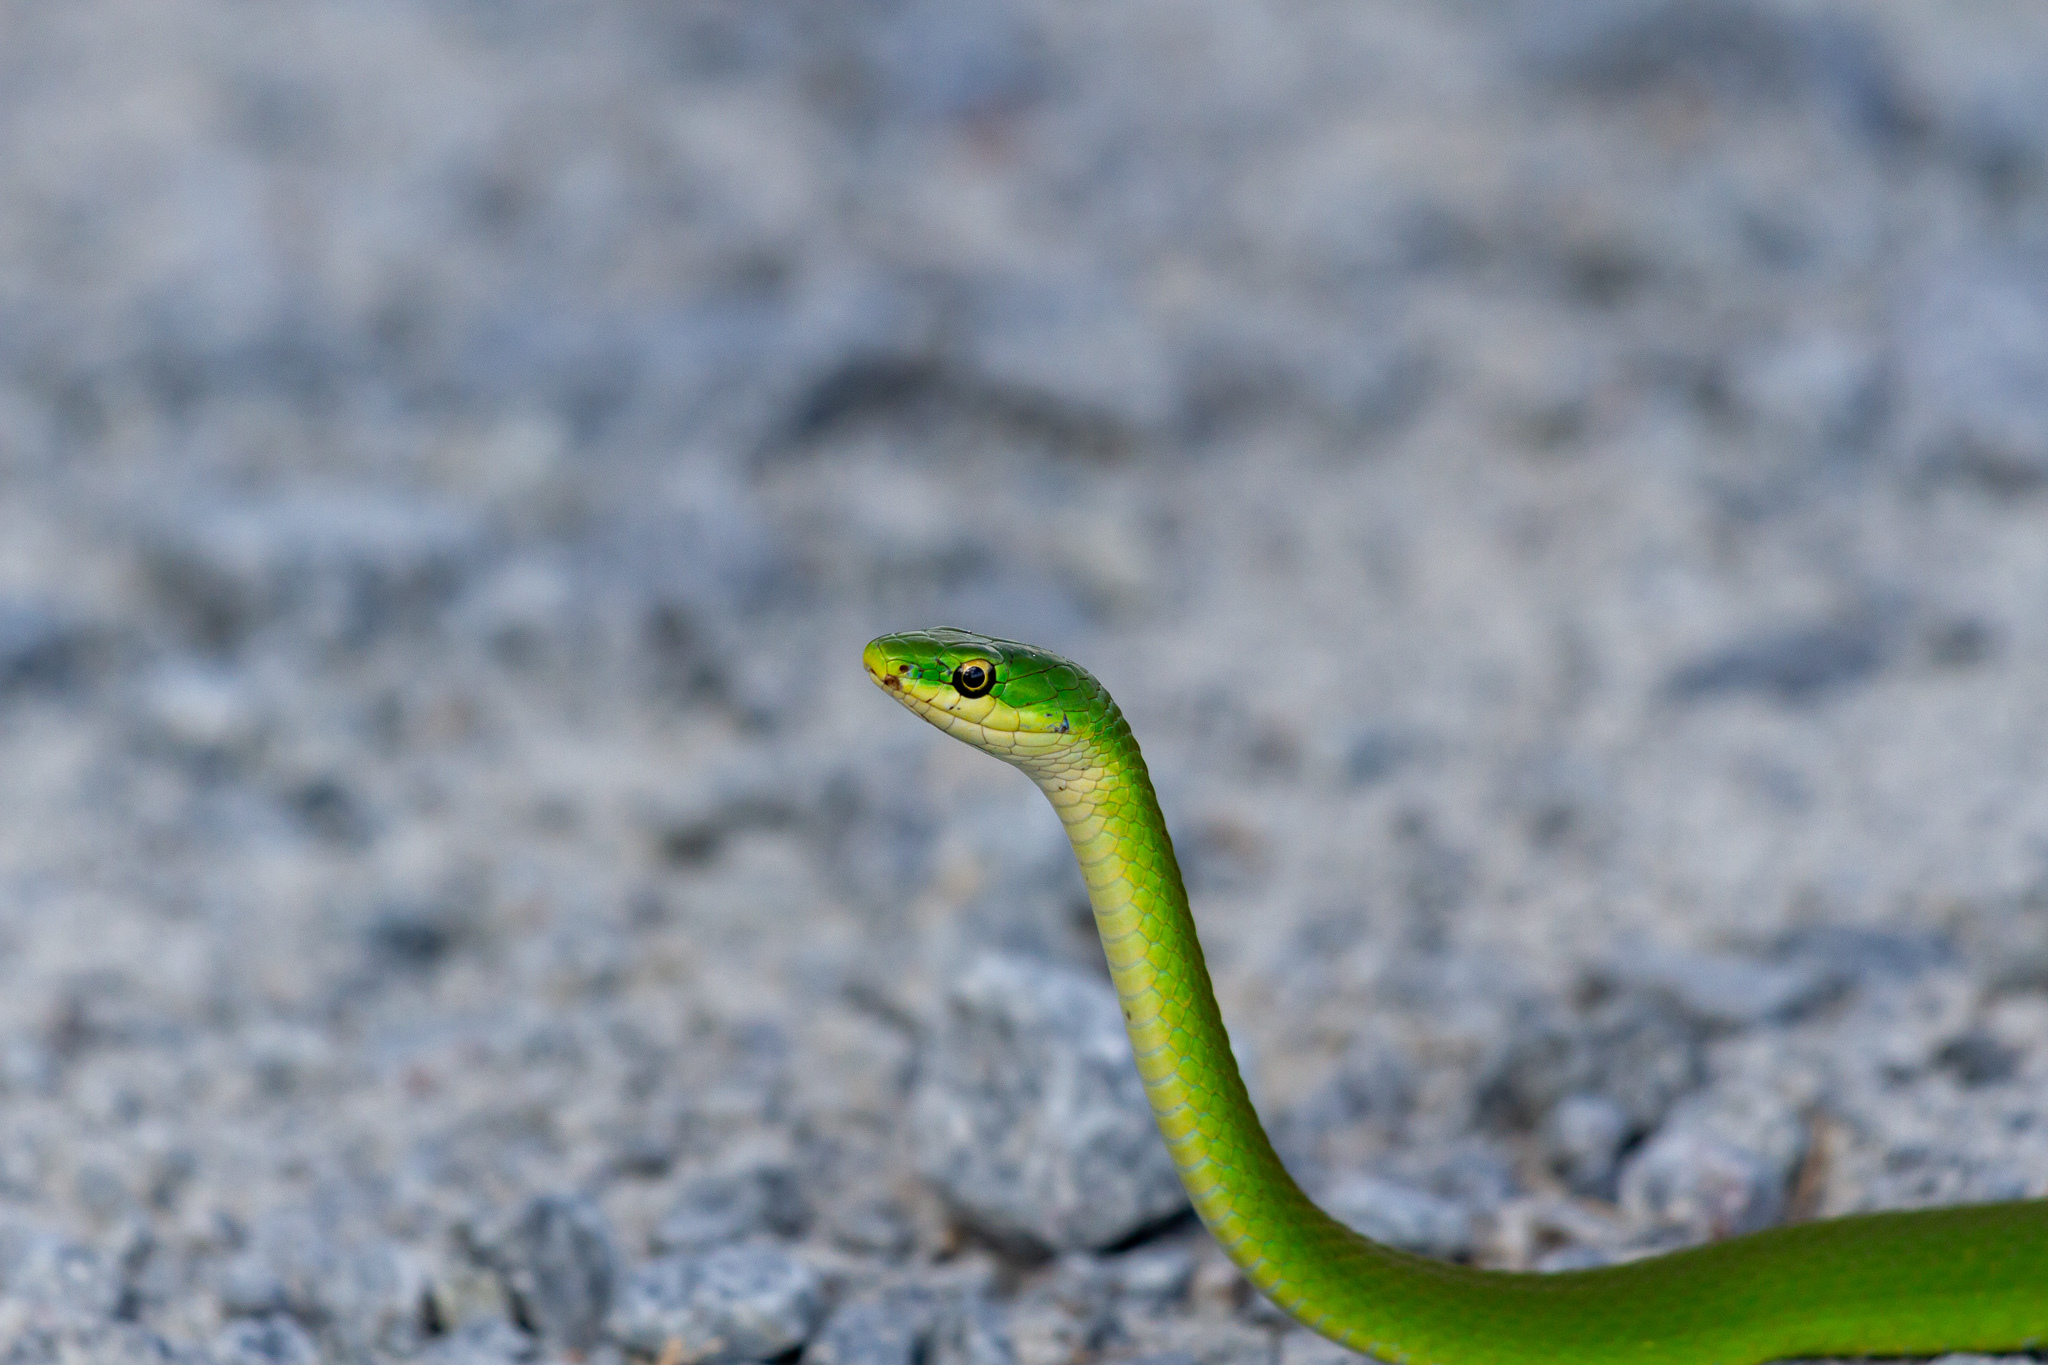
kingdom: Animalia
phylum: Chordata
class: Squamata
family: Colubridae
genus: Opheodrys
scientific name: Opheodrys aestivus
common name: Rough greensnake
